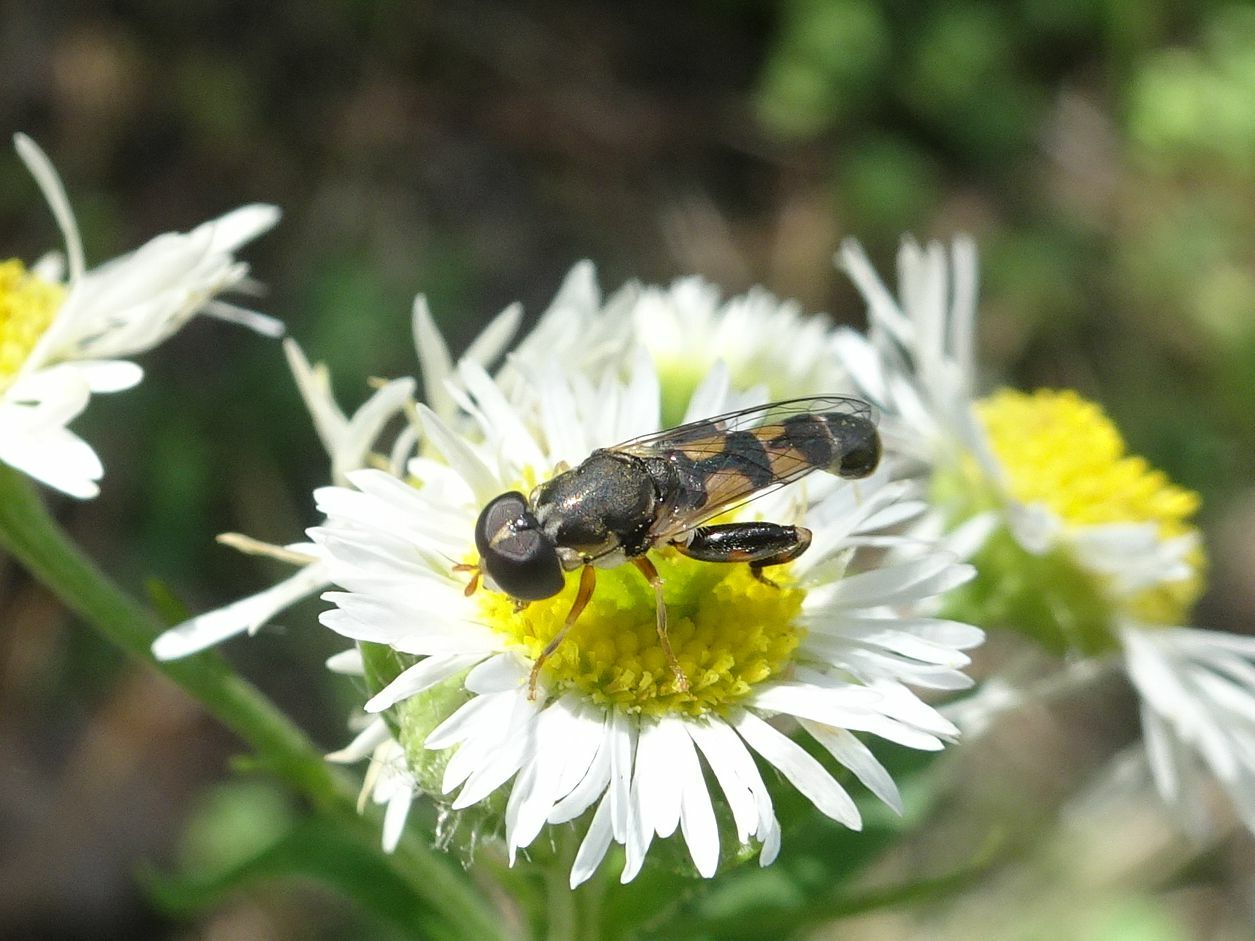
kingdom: Animalia
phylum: Arthropoda
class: Insecta
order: Diptera
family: Syrphidae
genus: Syritta
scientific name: Syritta pipiens
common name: Hover fly
